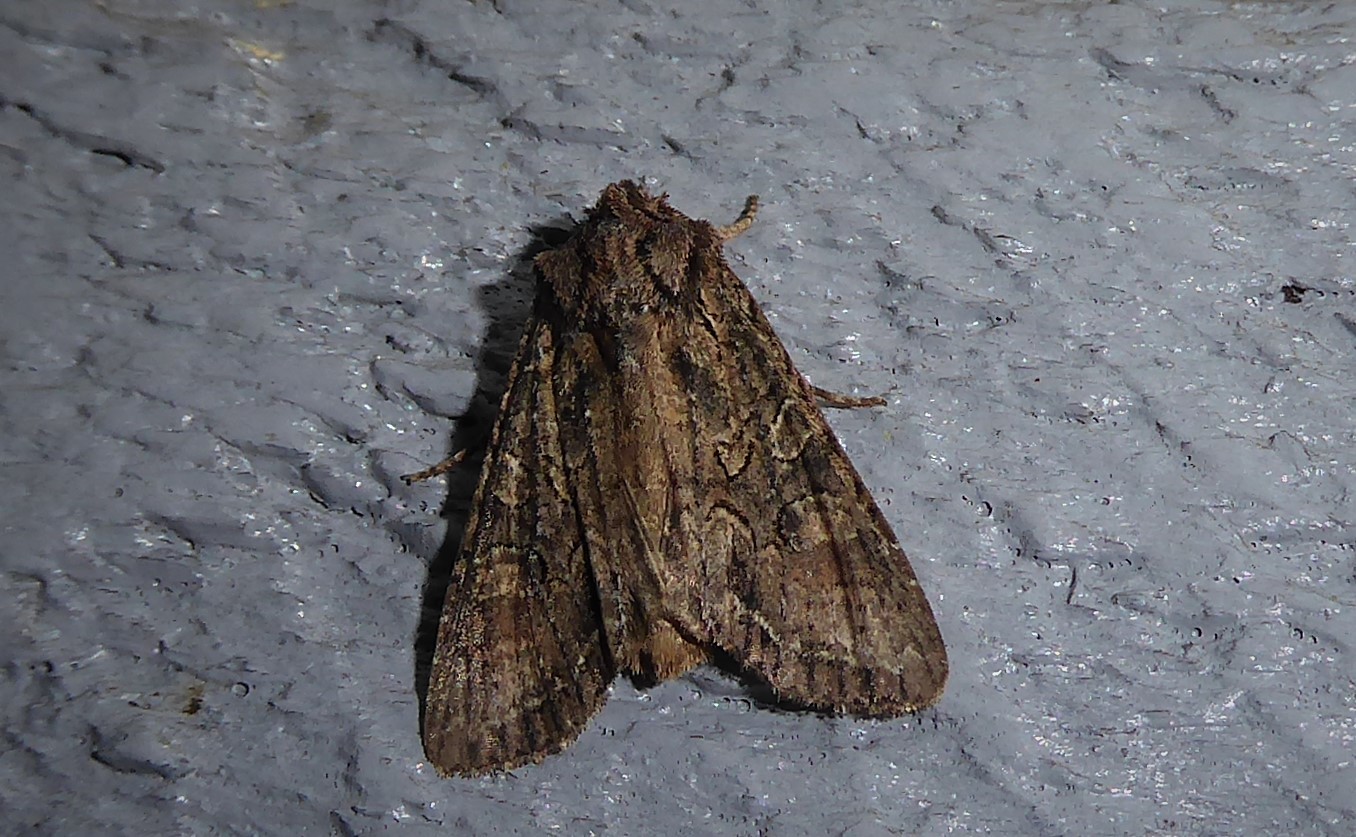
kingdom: Animalia
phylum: Arthropoda
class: Insecta
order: Lepidoptera
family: Noctuidae
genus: Ichneutica
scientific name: Ichneutica mutans
